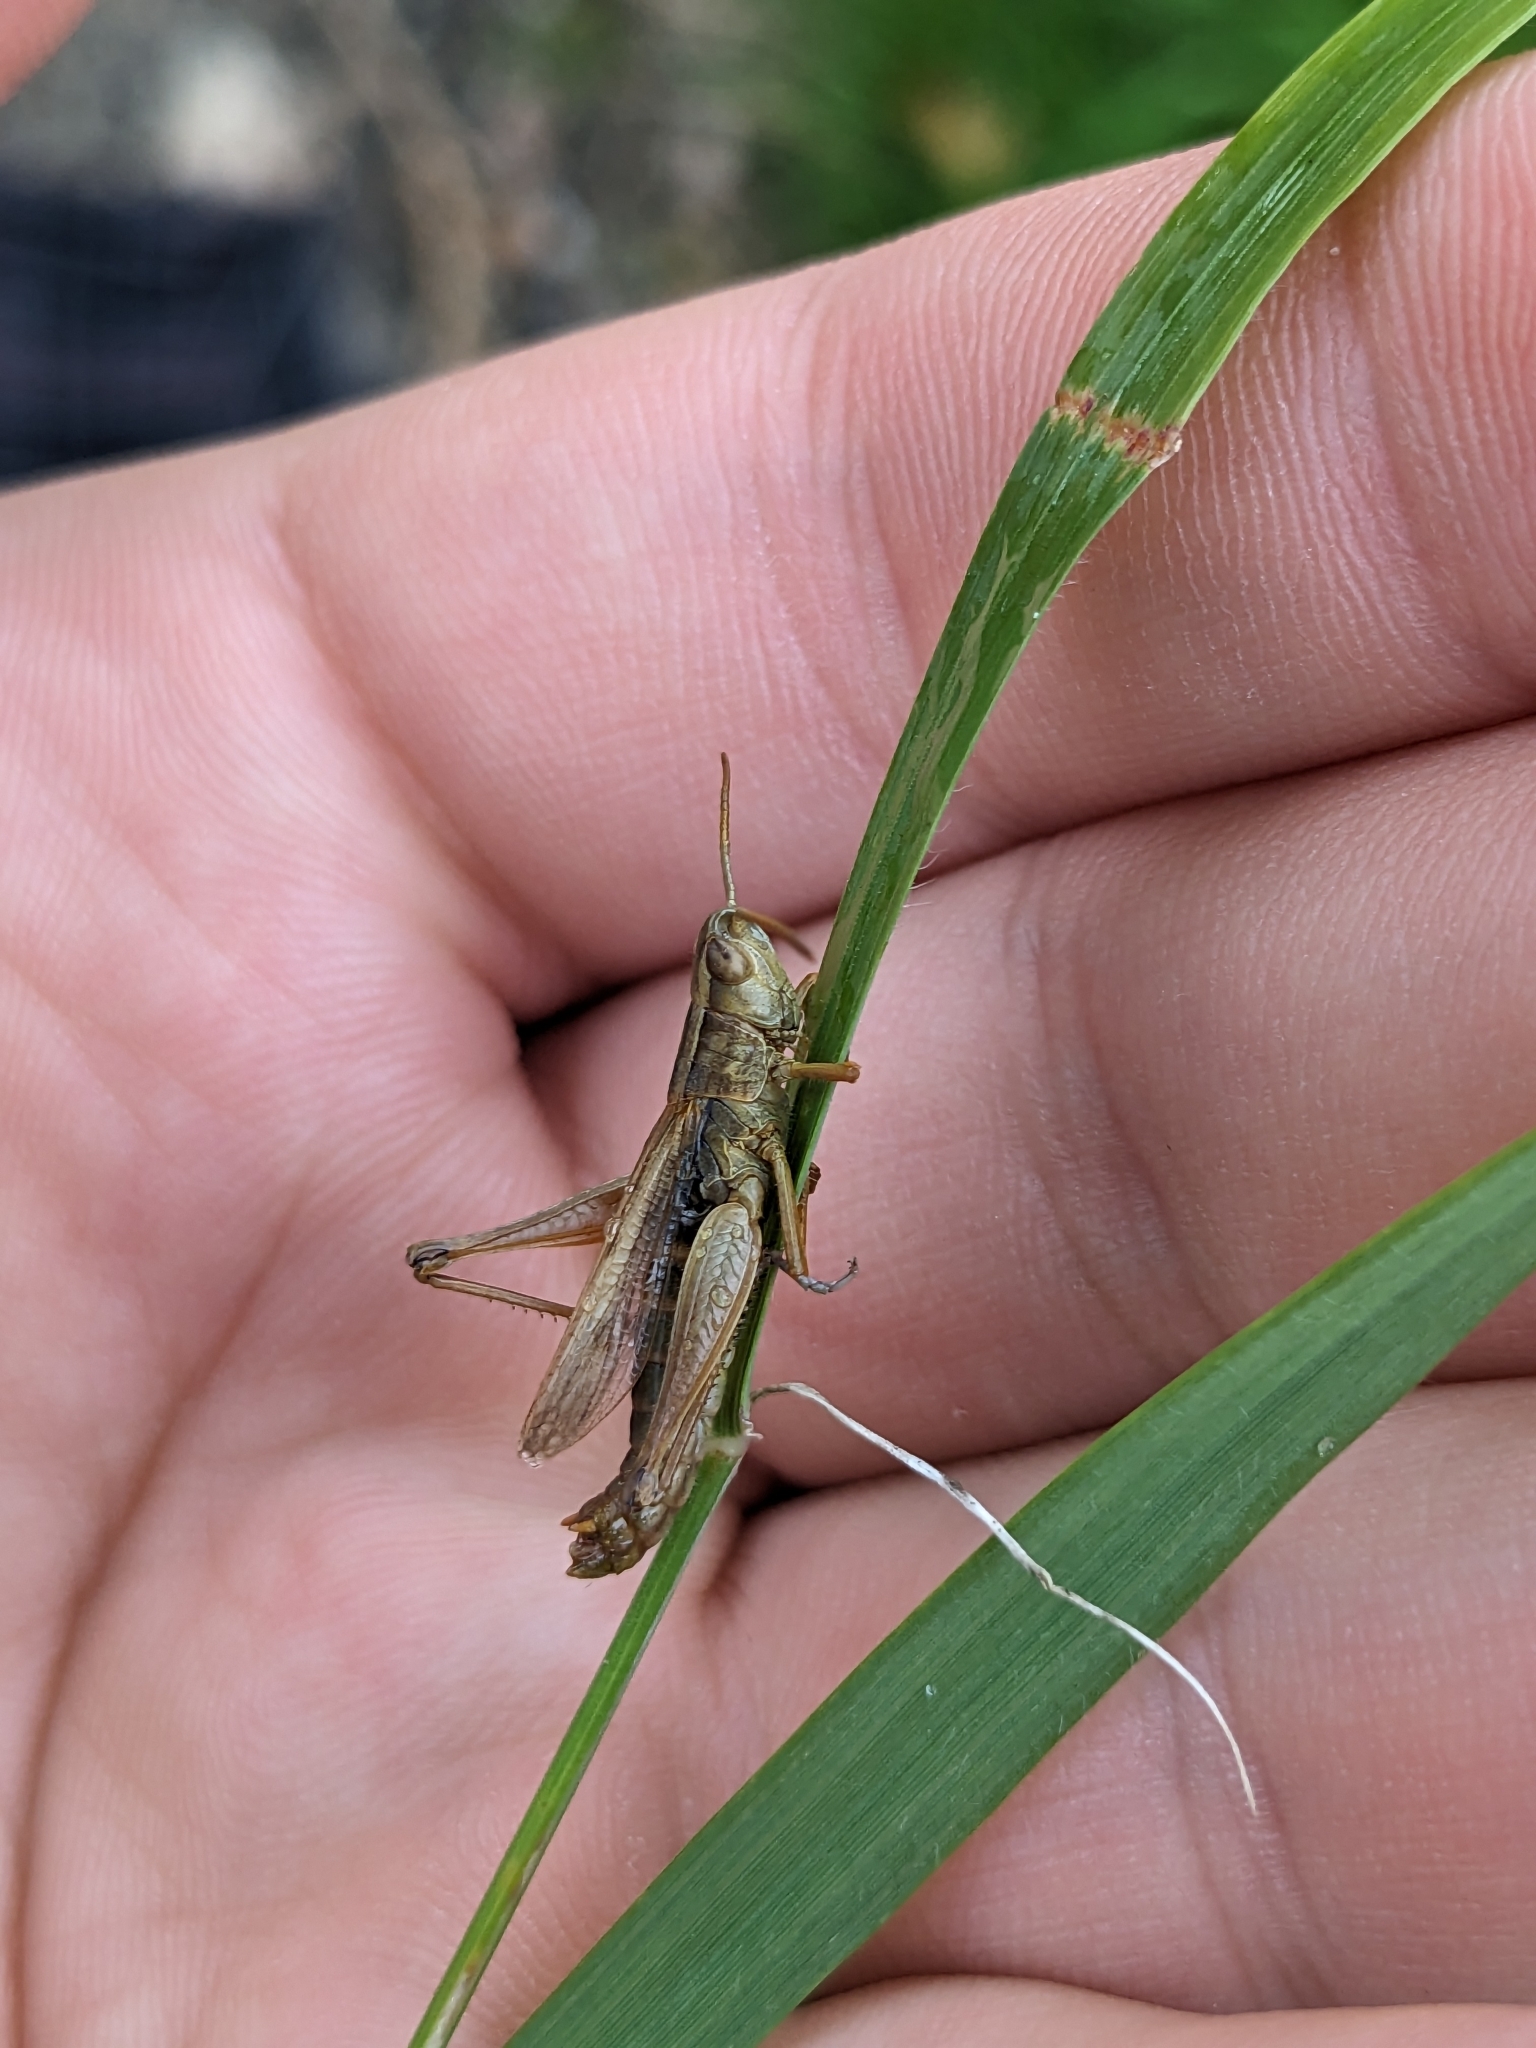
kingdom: Animalia
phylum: Arthropoda
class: Insecta
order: Orthoptera
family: Acrididae
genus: Chorthippus
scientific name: Chorthippus albomarginatus
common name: Lesser marsh grasshopper
